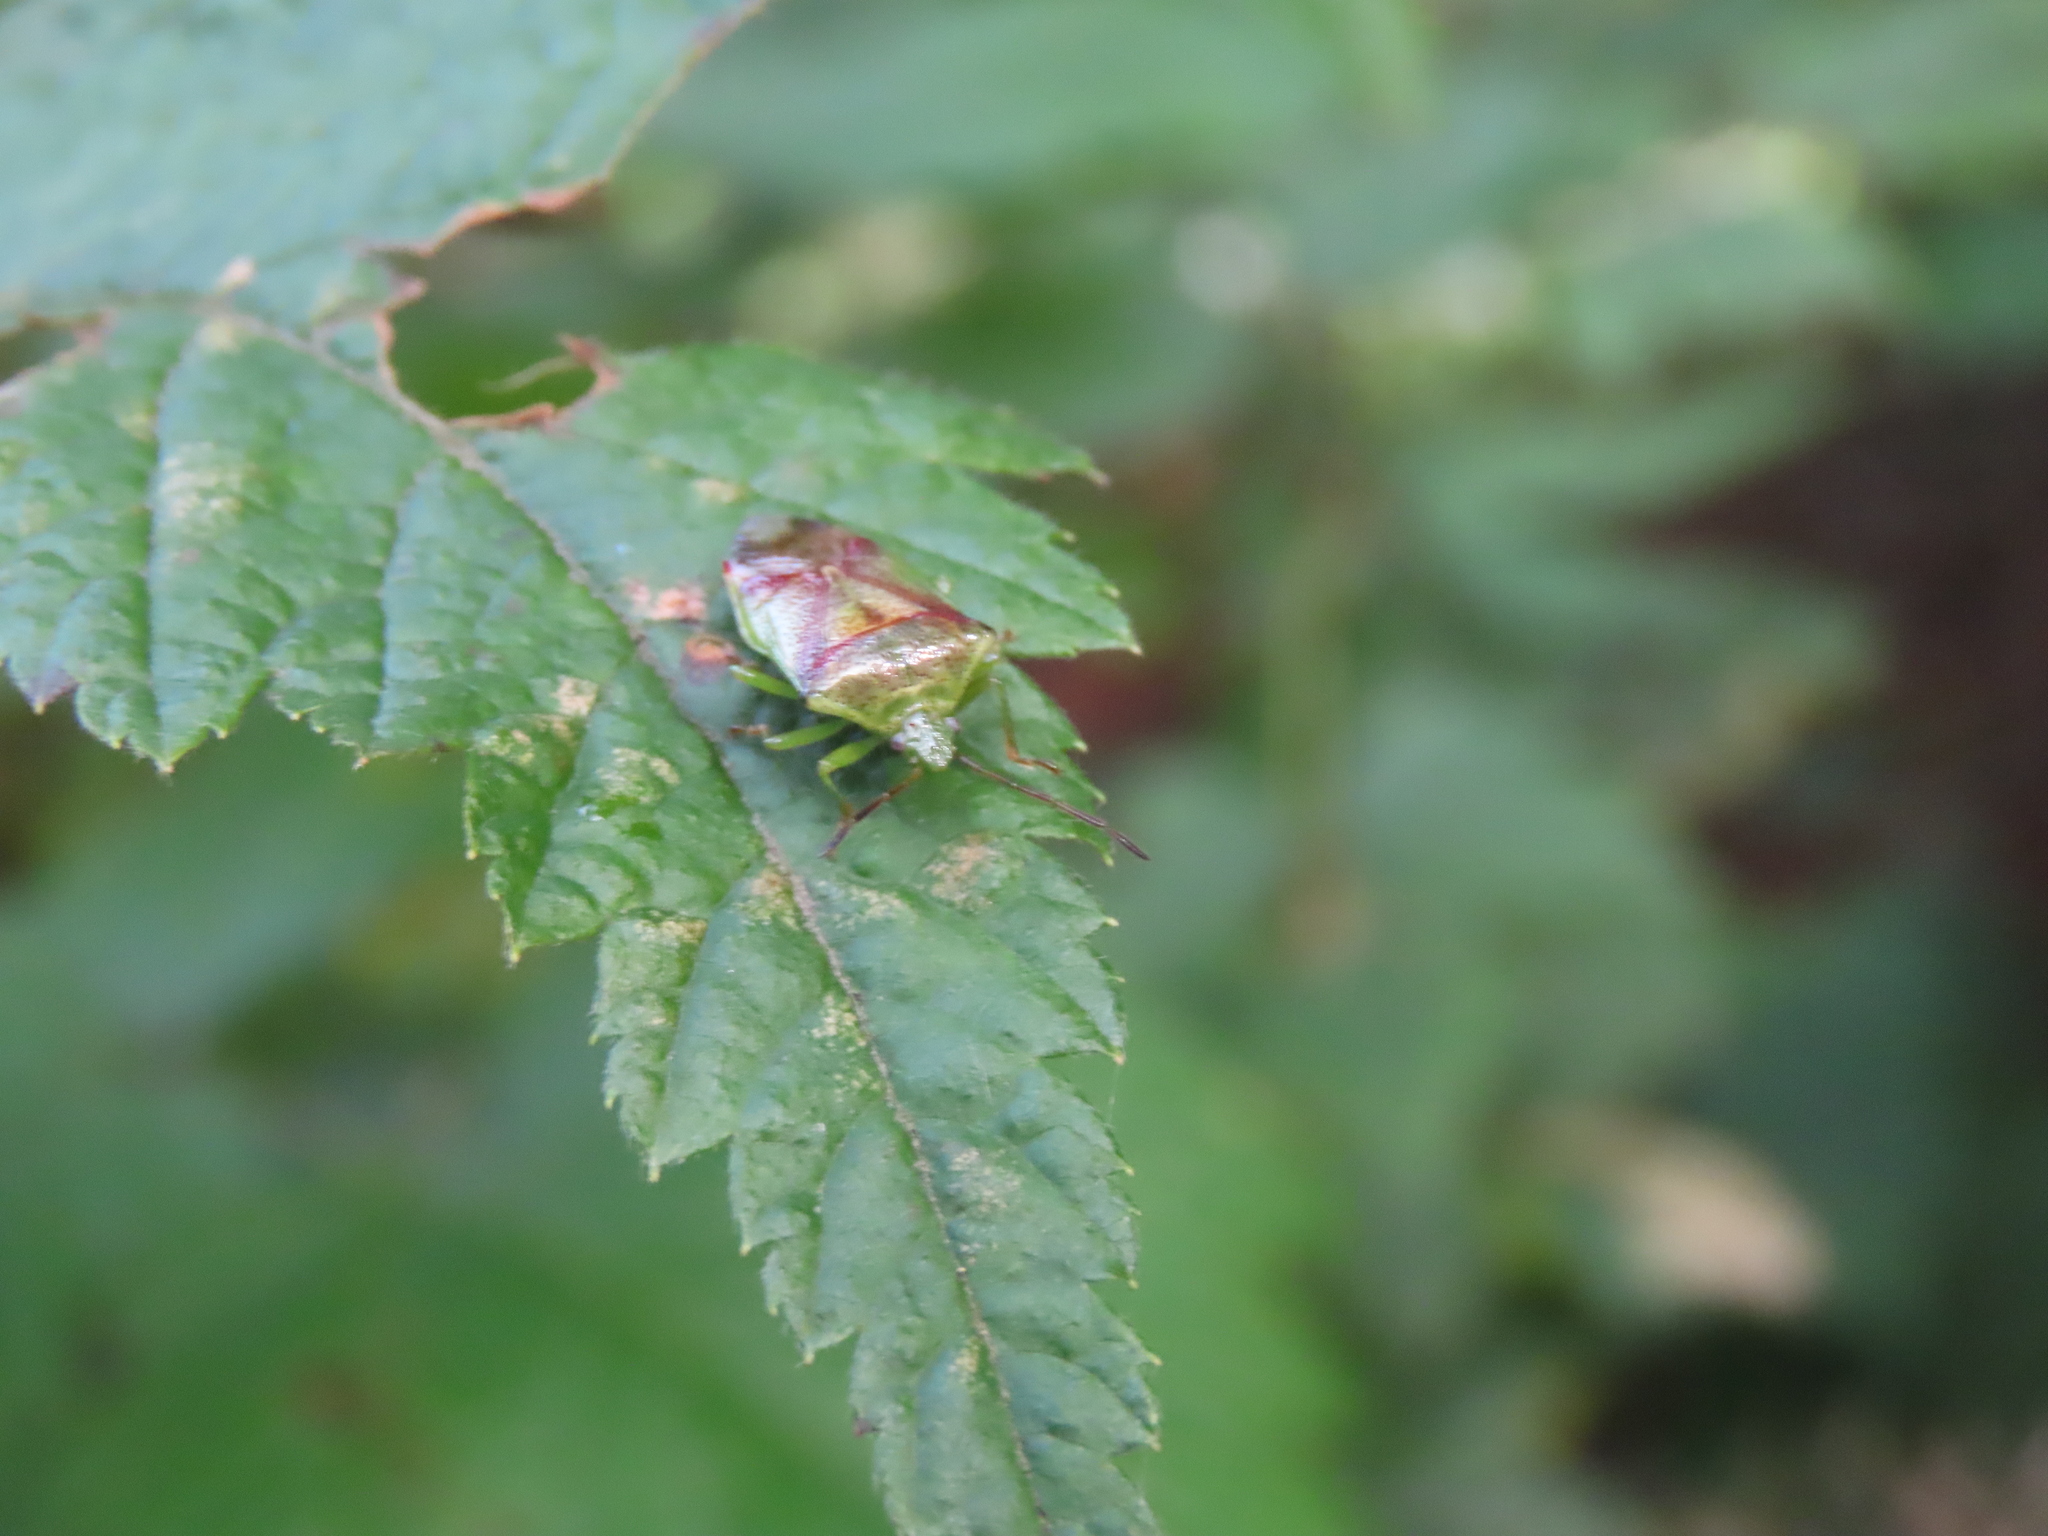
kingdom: Animalia
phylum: Arthropoda
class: Insecta
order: Hemiptera
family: Acanthosomatidae
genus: Elasmostethus
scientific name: Elasmostethus cruciatus
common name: Red-cross shield bug
